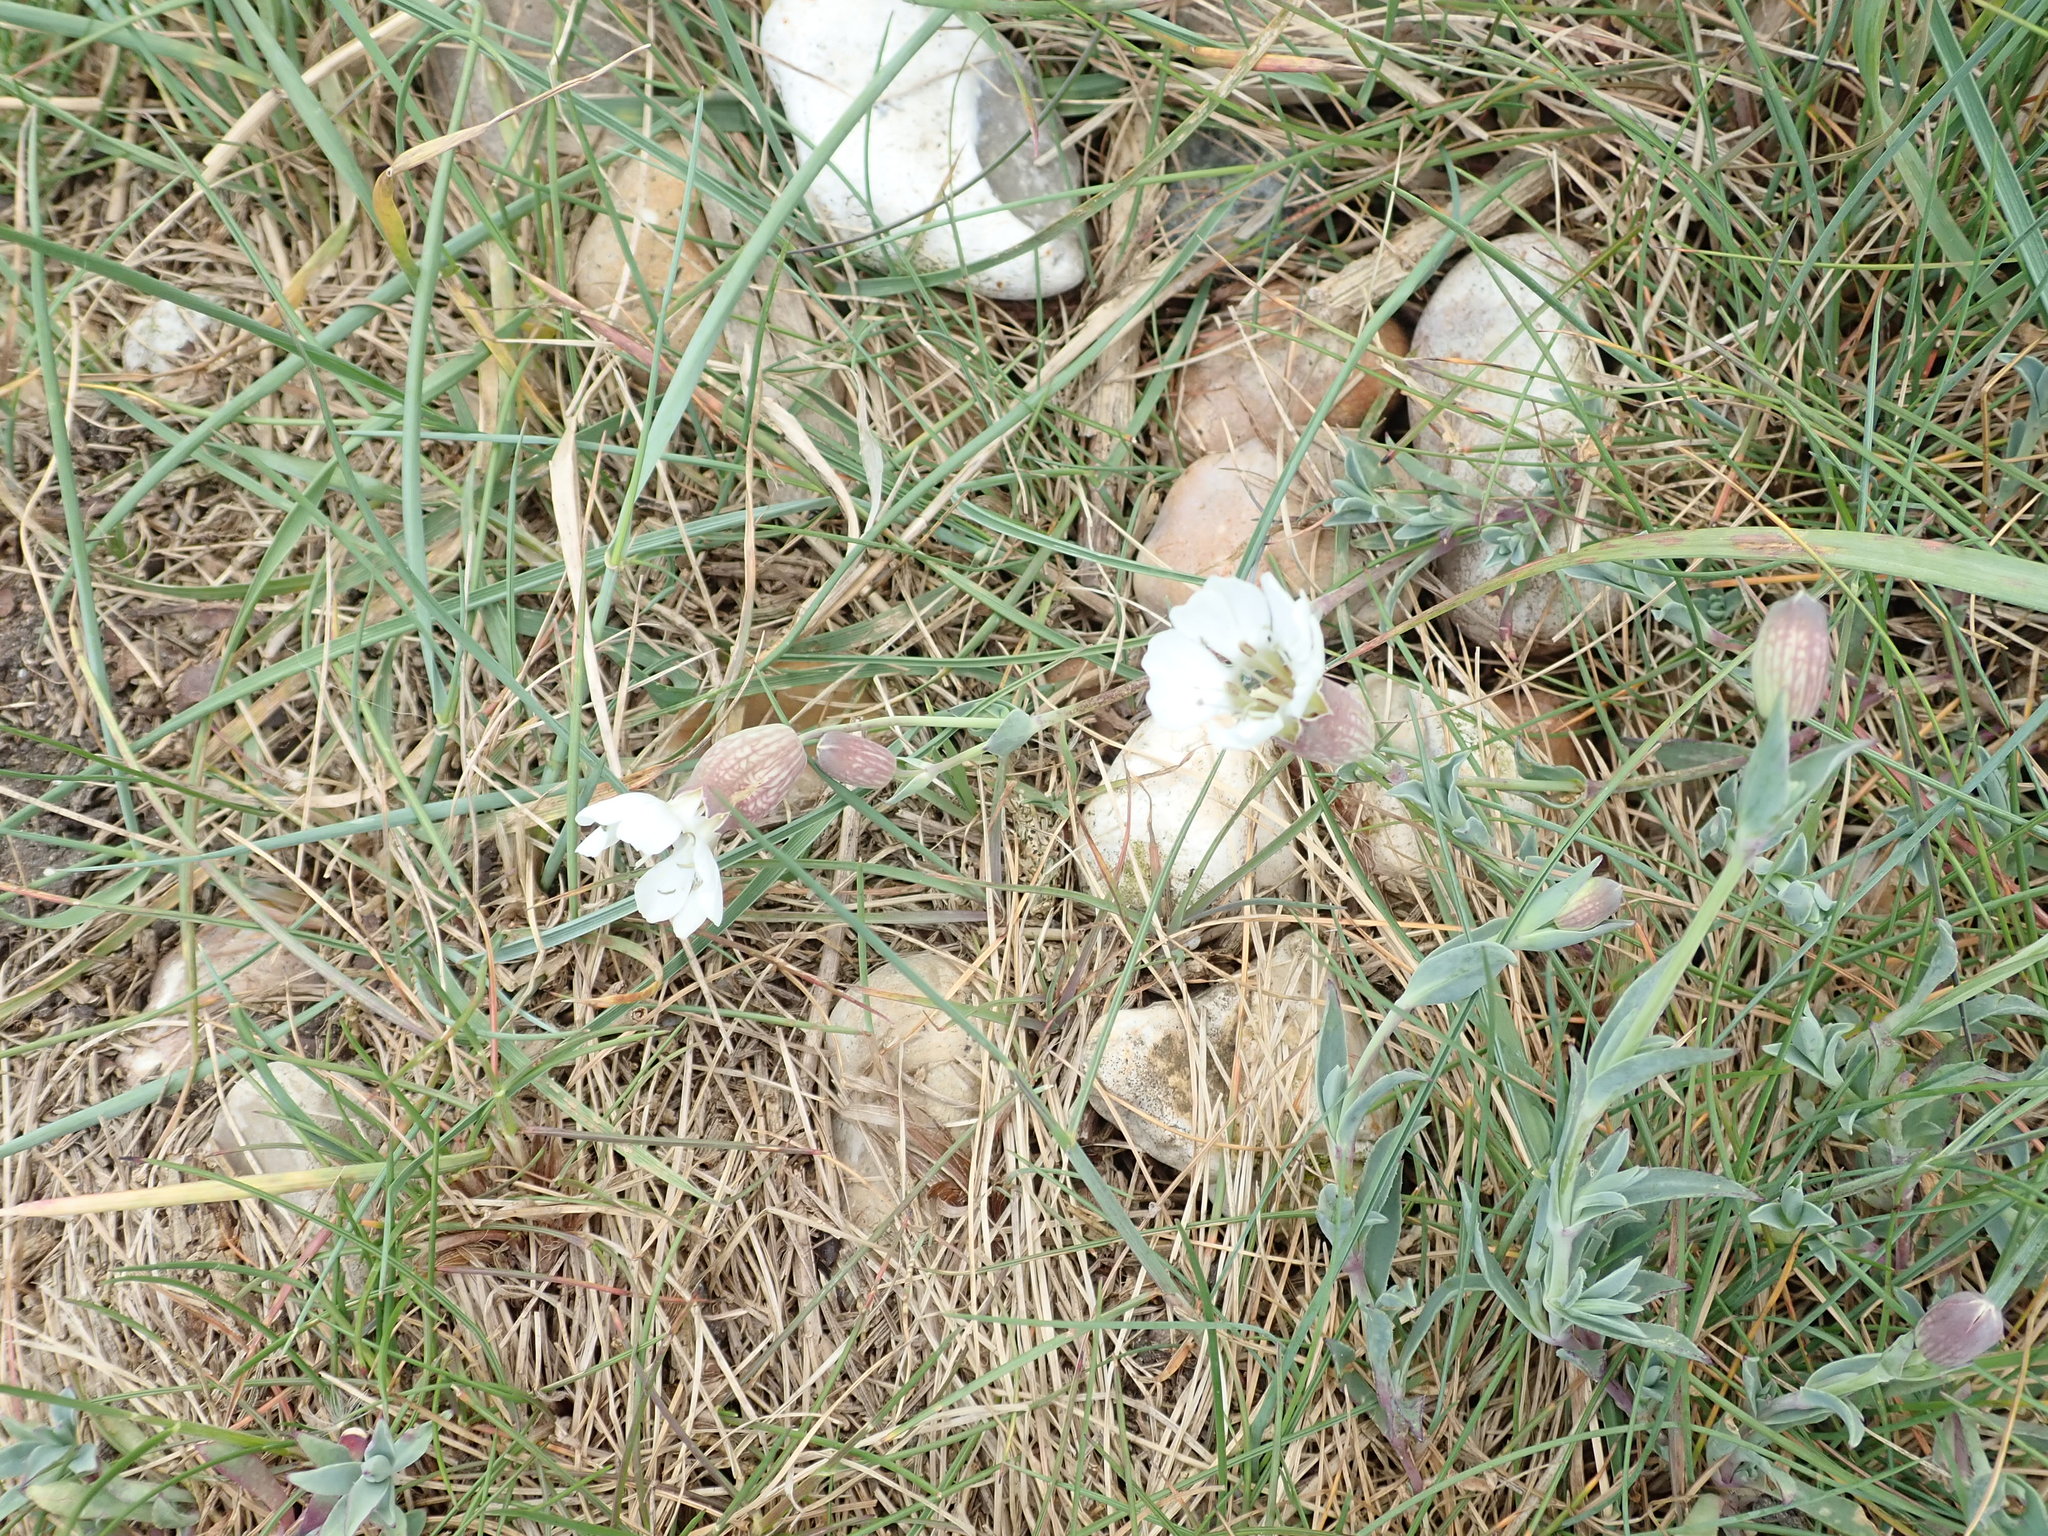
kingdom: Plantae
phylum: Tracheophyta
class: Magnoliopsida
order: Caryophyllales
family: Caryophyllaceae
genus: Silene
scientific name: Silene uniflora
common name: Sea campion
